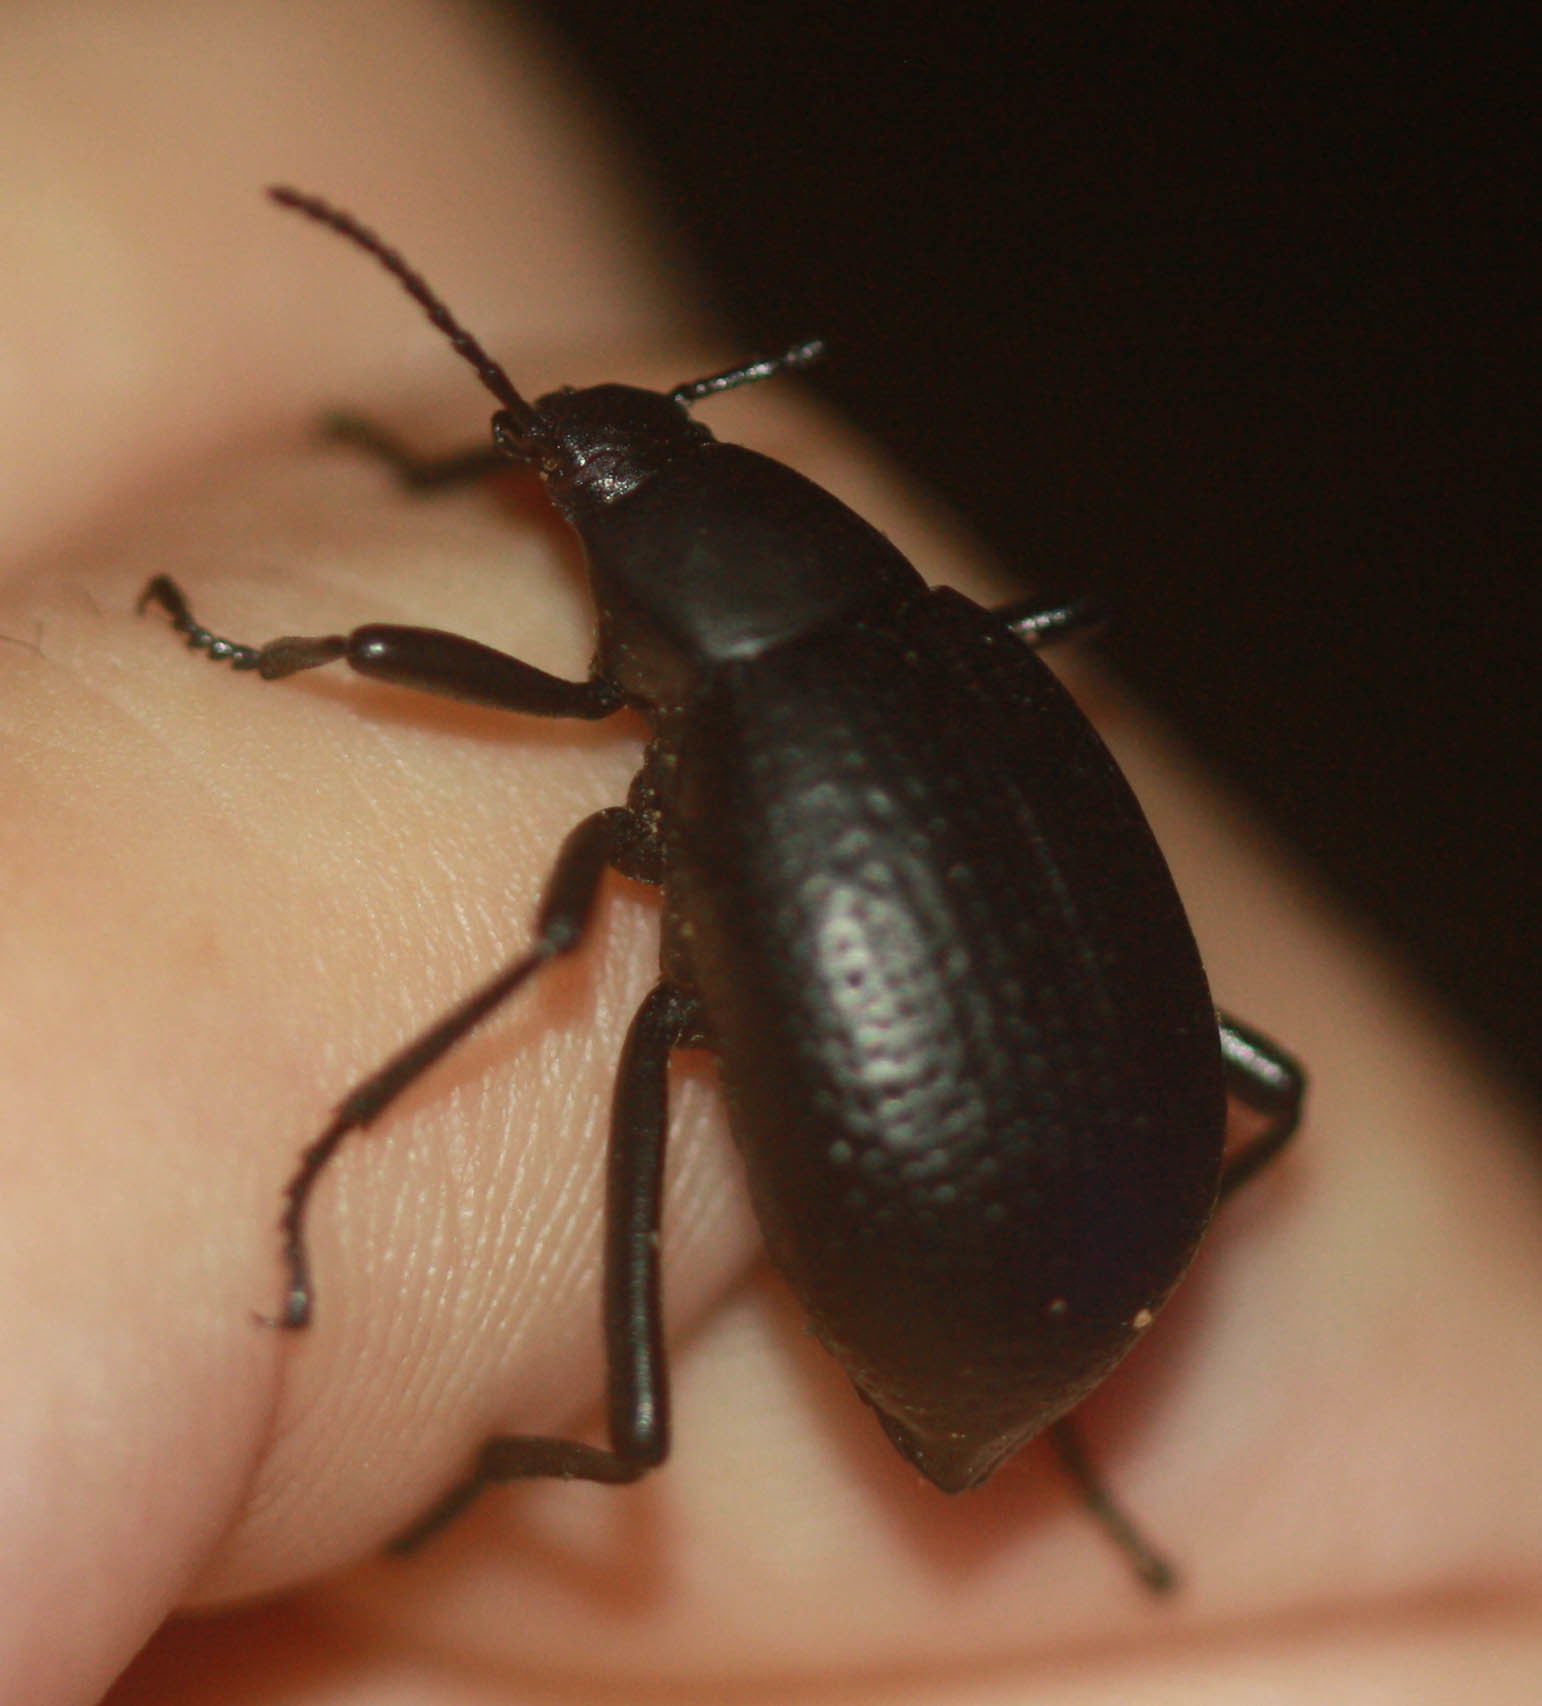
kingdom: Animalia
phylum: Arthropoda
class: Insecta
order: Coleoptera
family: Tenebrionidae
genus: Eleodes
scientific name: Eleodes goryi
